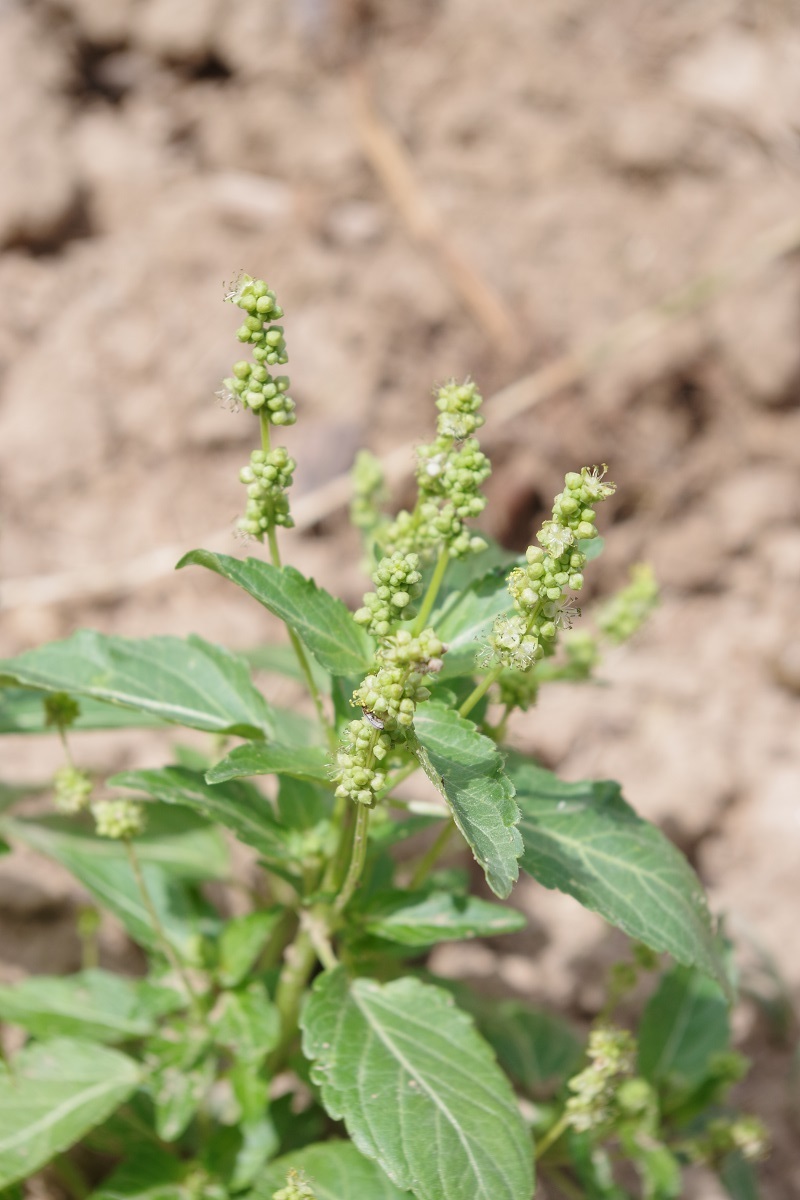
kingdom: Plantae
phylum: Tracheophyta
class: Magnoliopsida
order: Malpighiales
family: Euphorbiaceae
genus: Mercurialis
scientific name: Mercurialis annua
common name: Annual mercury
